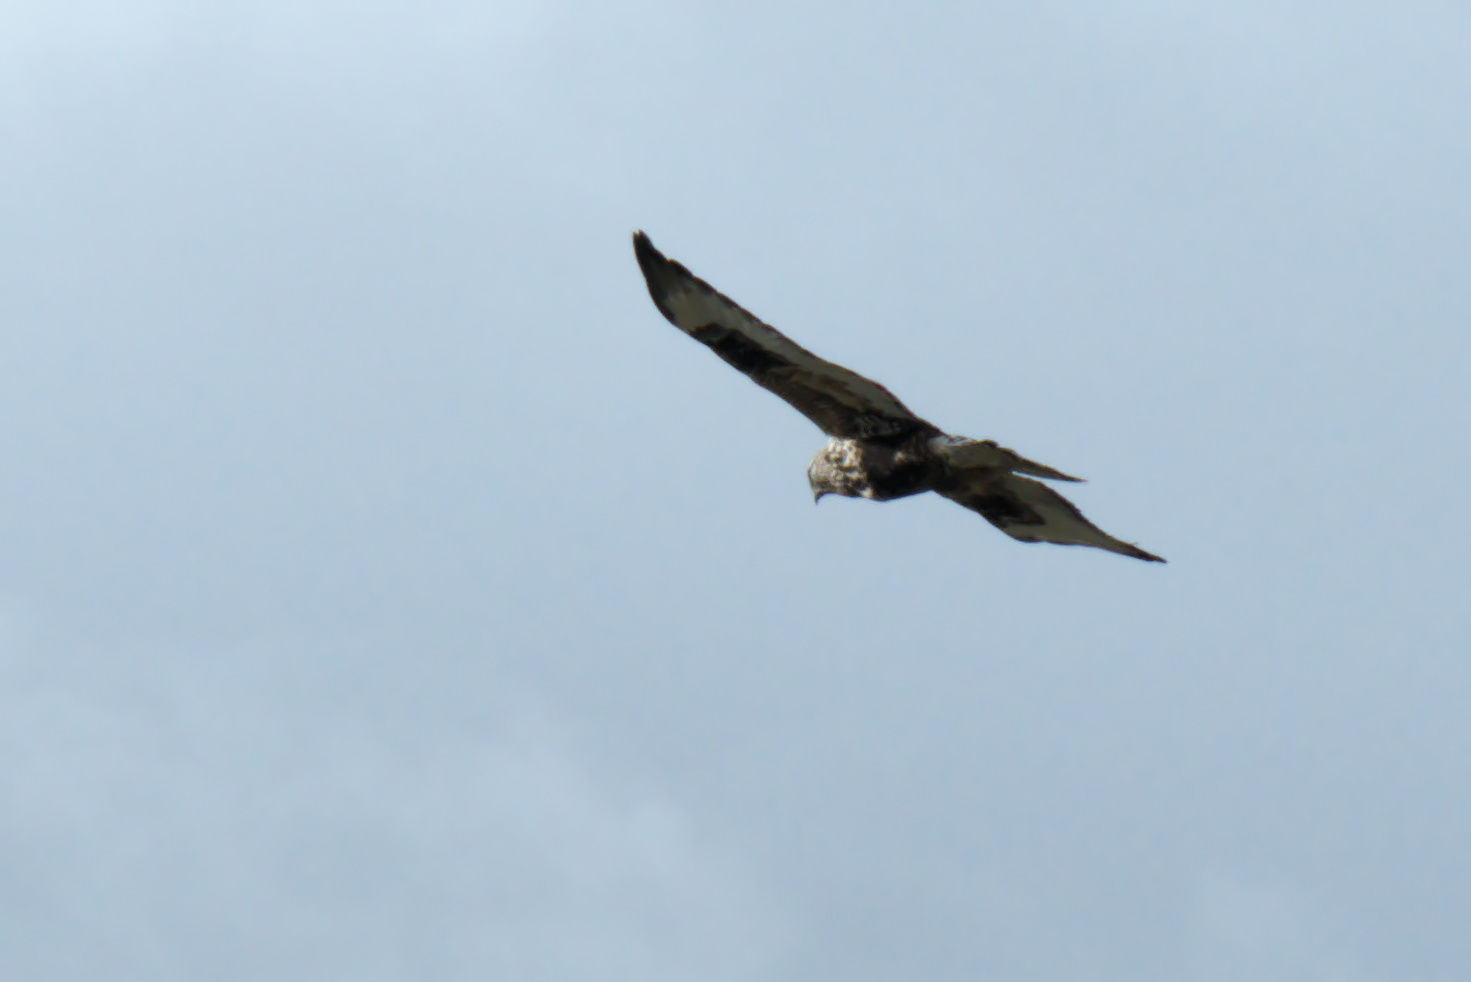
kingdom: Animalia
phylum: Chordata
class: Aves
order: Accipitriformes
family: Accipitridae
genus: Buteo
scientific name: Buteo lagopus
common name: Rough-legged buzzard
